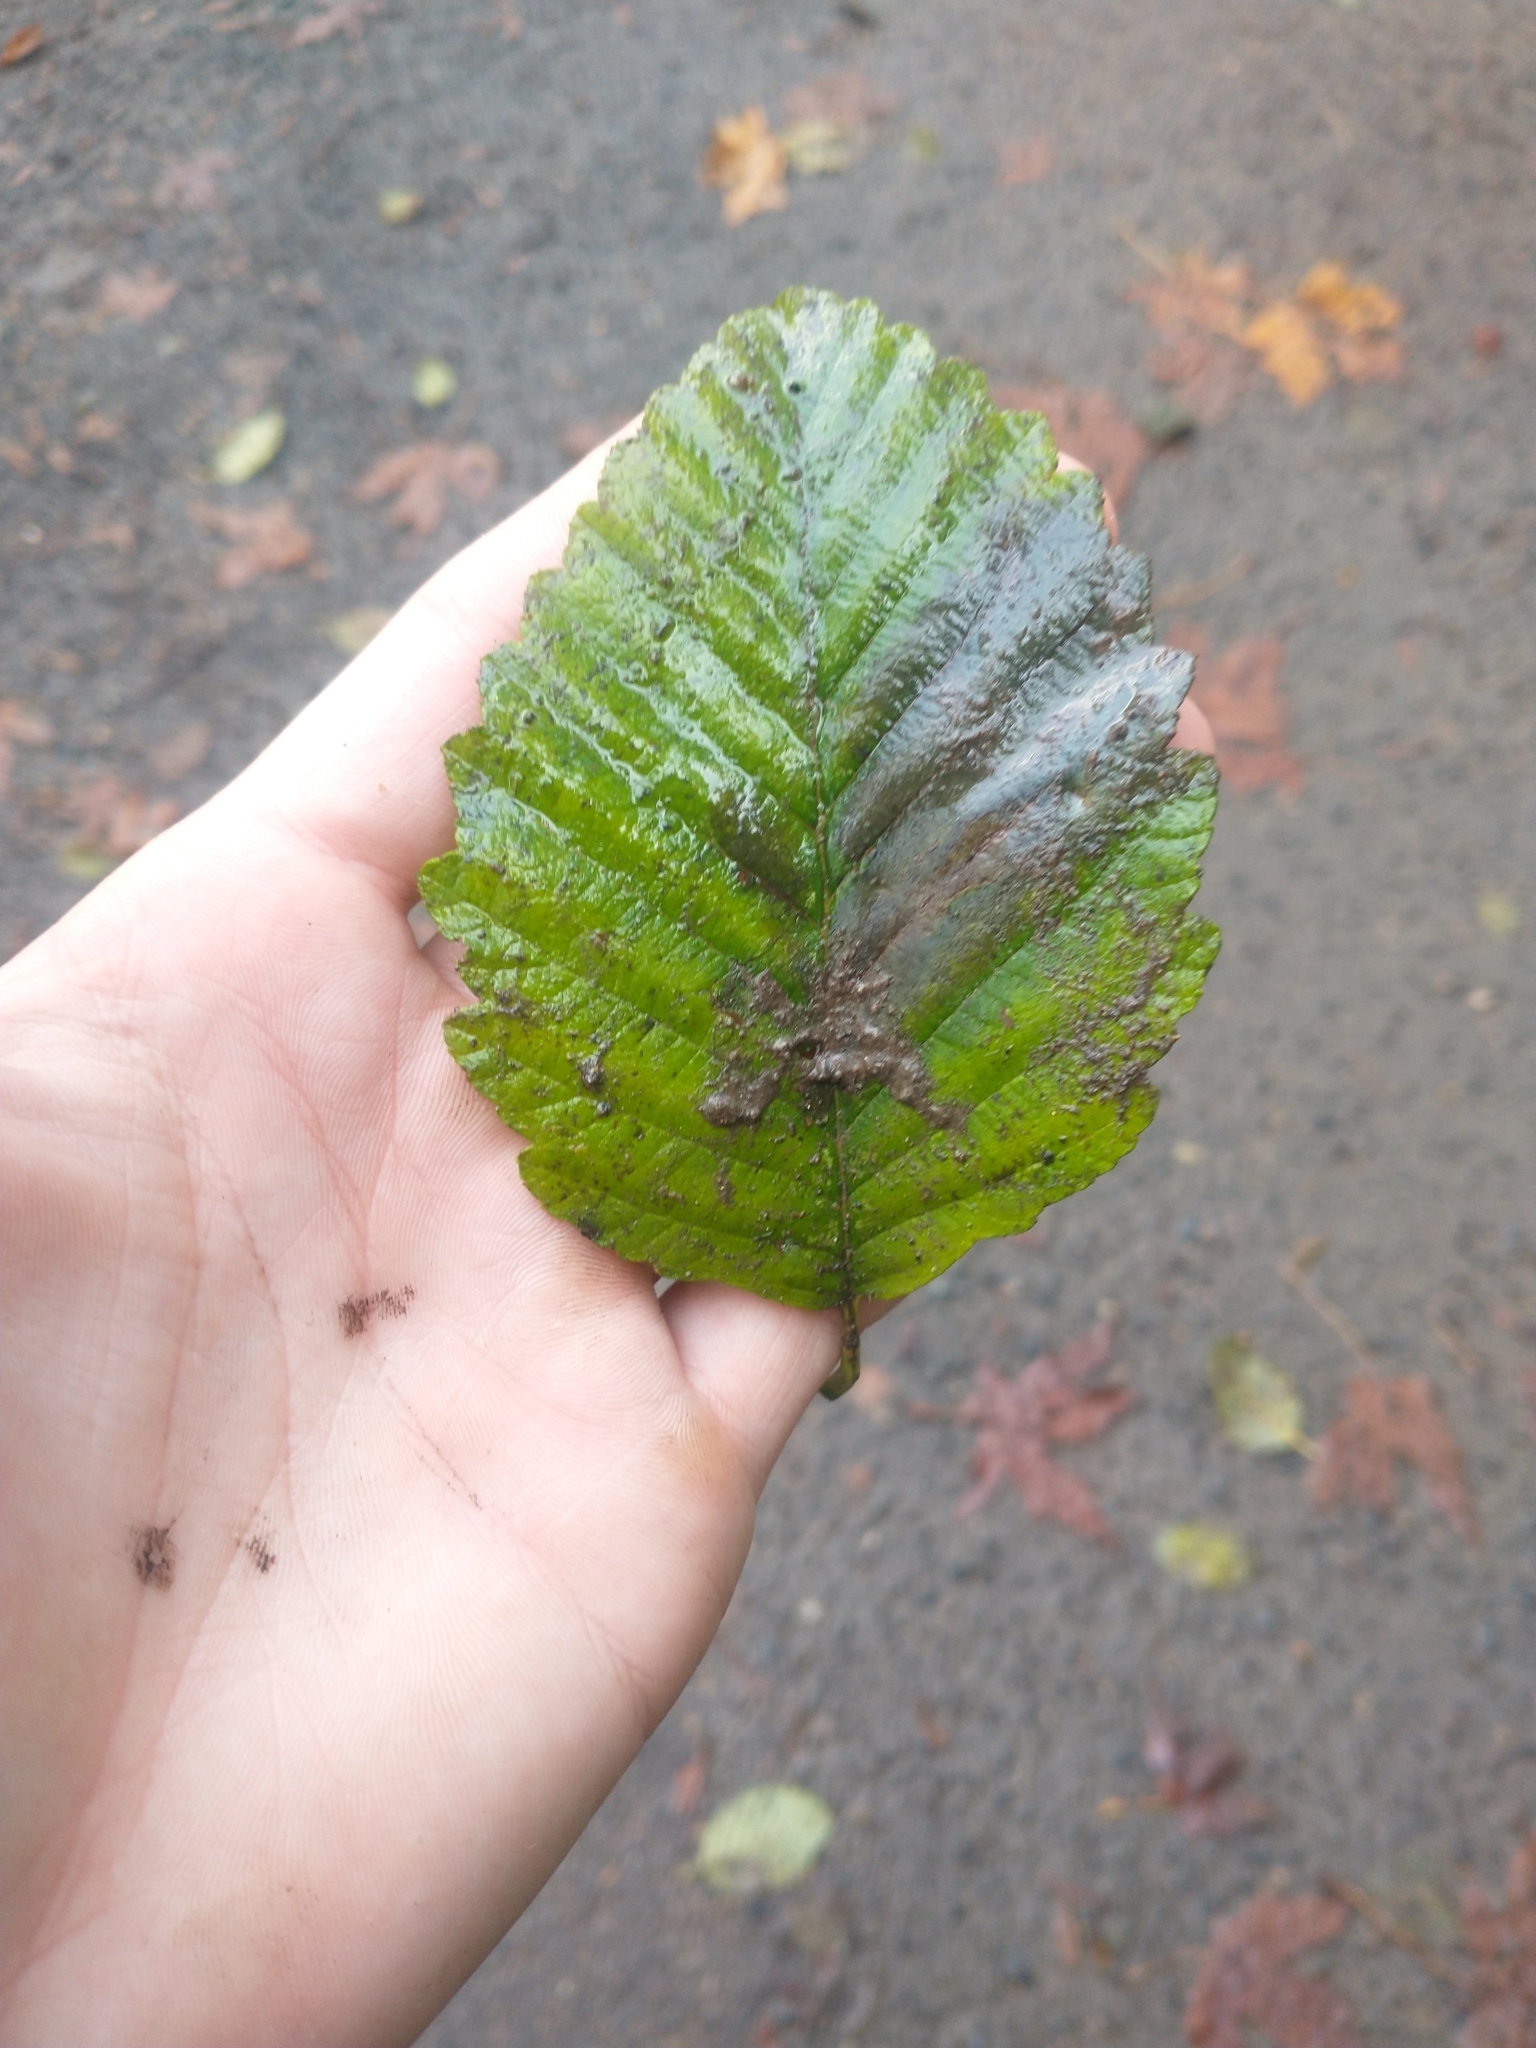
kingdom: Plantae
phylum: Tracheophyta
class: Magnoliopsida
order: Fagales
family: Betulaceae
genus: Alnus
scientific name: Alnus rubra
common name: Red alder
